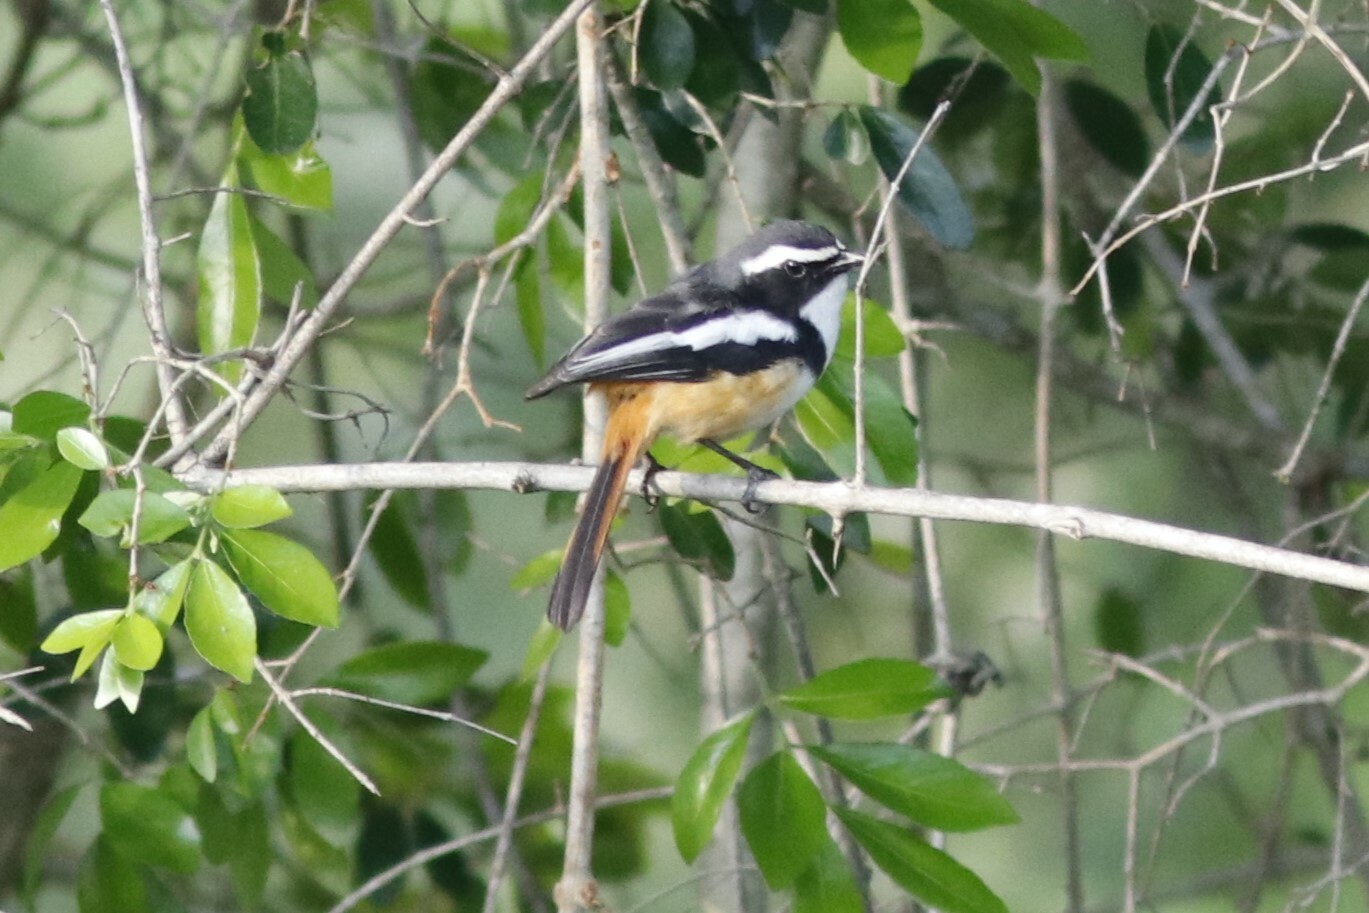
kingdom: Animalia
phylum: Chordata
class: Aves
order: Passeriformes
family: Muscicapidae
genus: Cossypha
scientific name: Cossypha humeralis
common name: White-throated robin-chat
